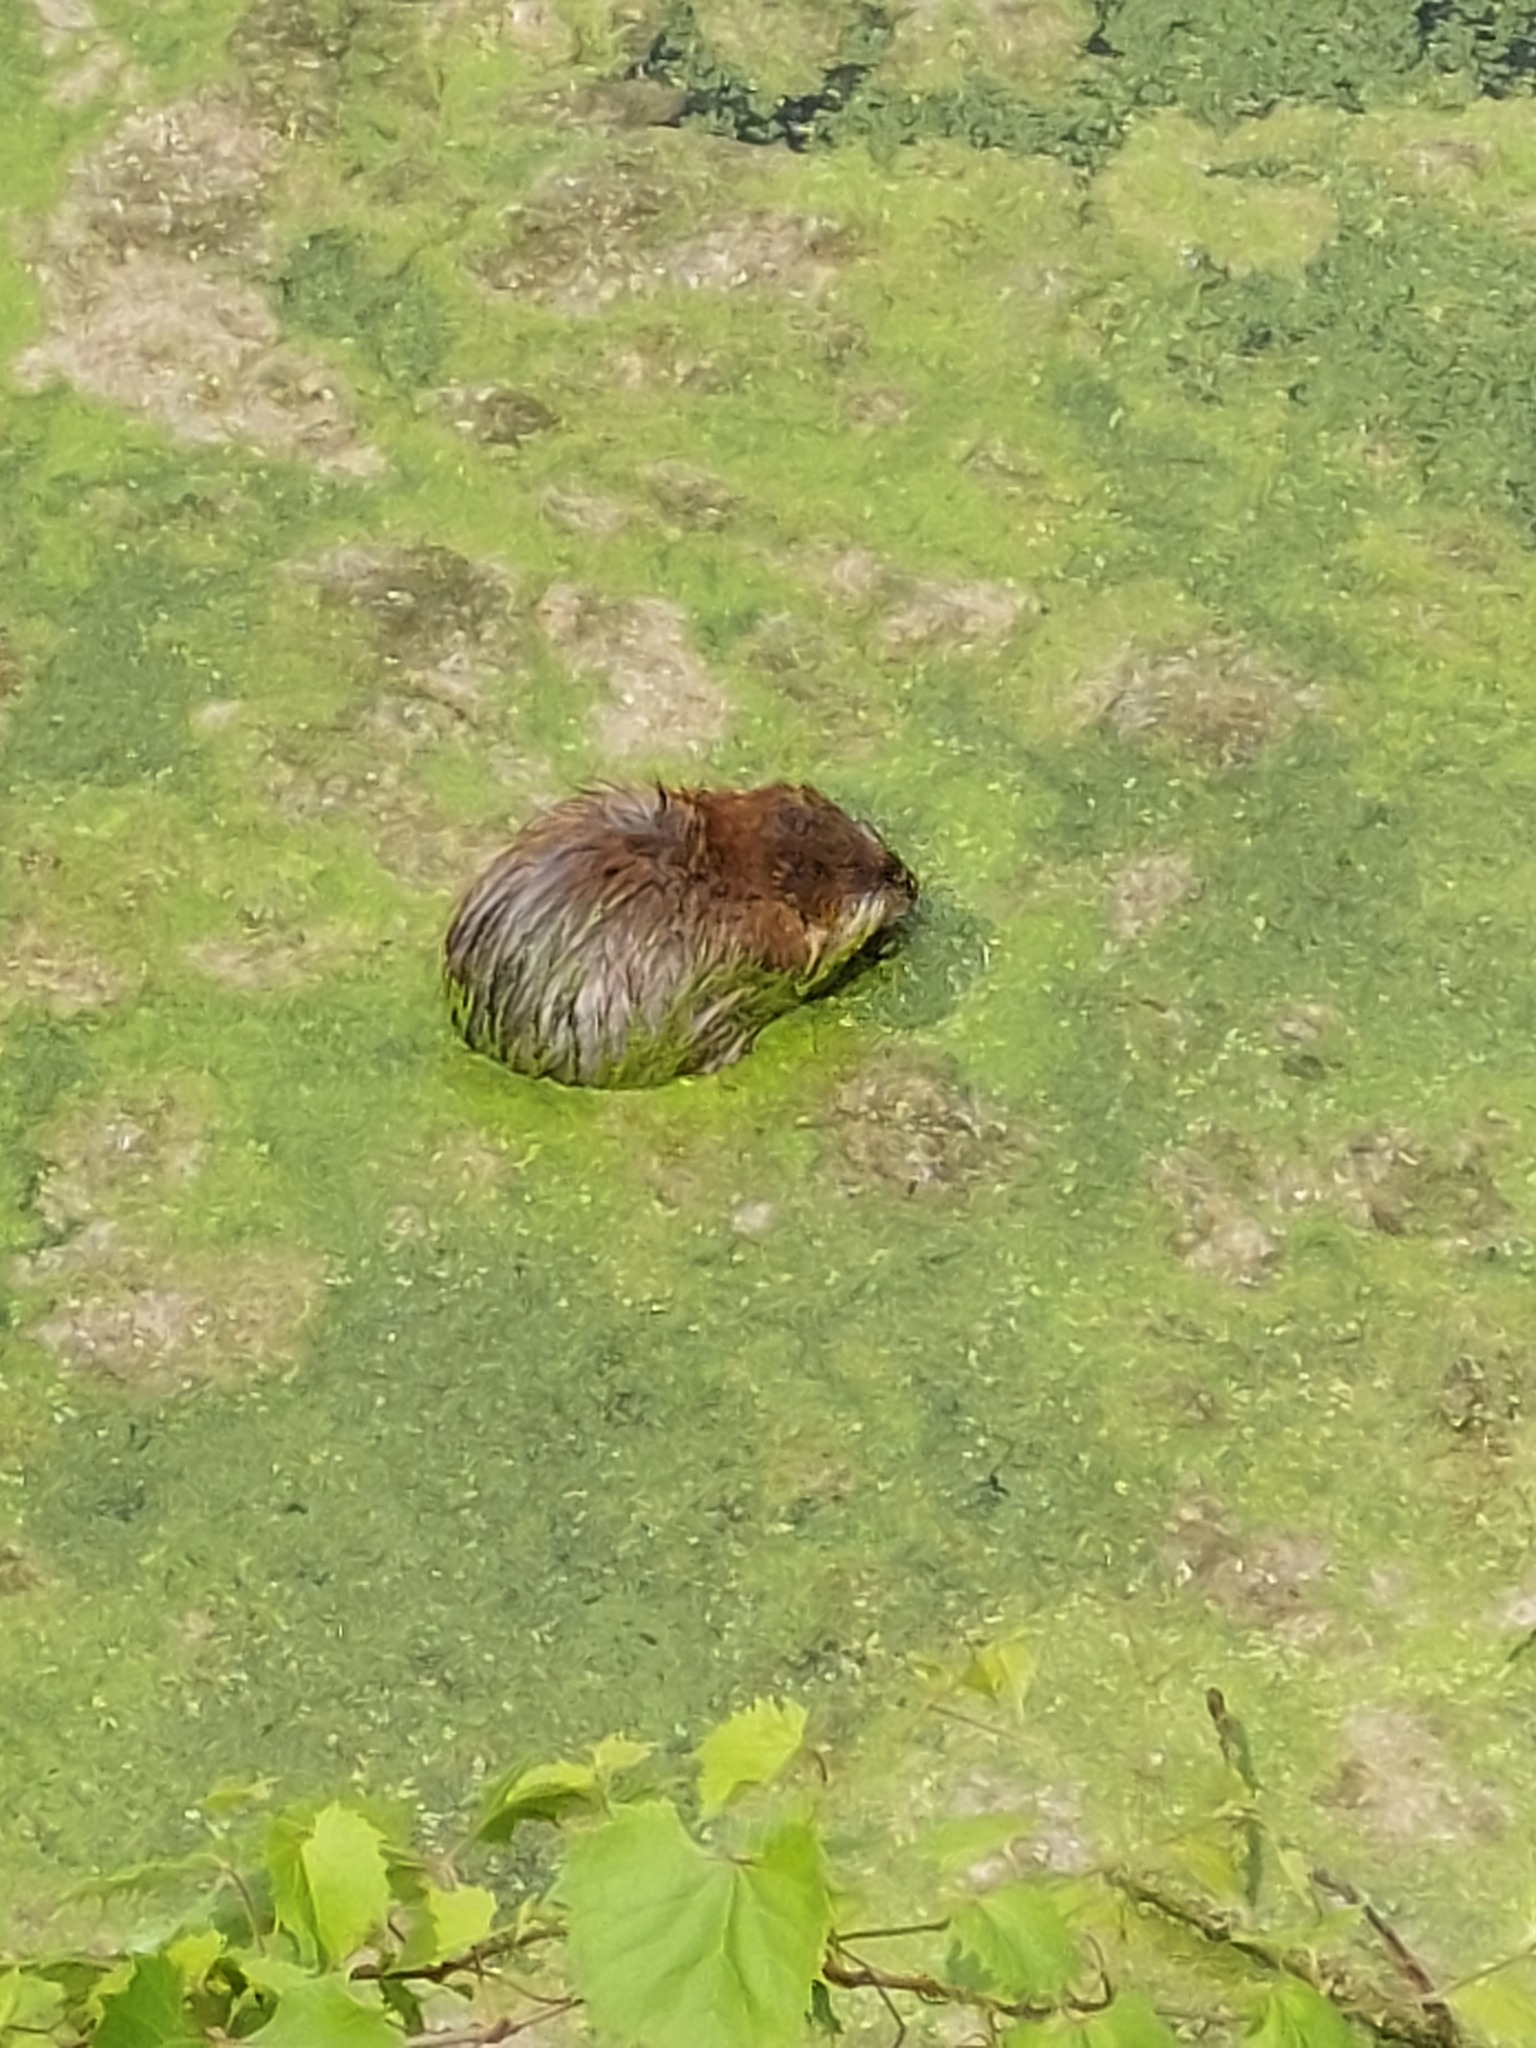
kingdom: Animalia
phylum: Chordata
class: Mammalia
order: Rodentia
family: Cricetidae
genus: Ondatra
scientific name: Ondatra zibethicus
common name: Muskrat
